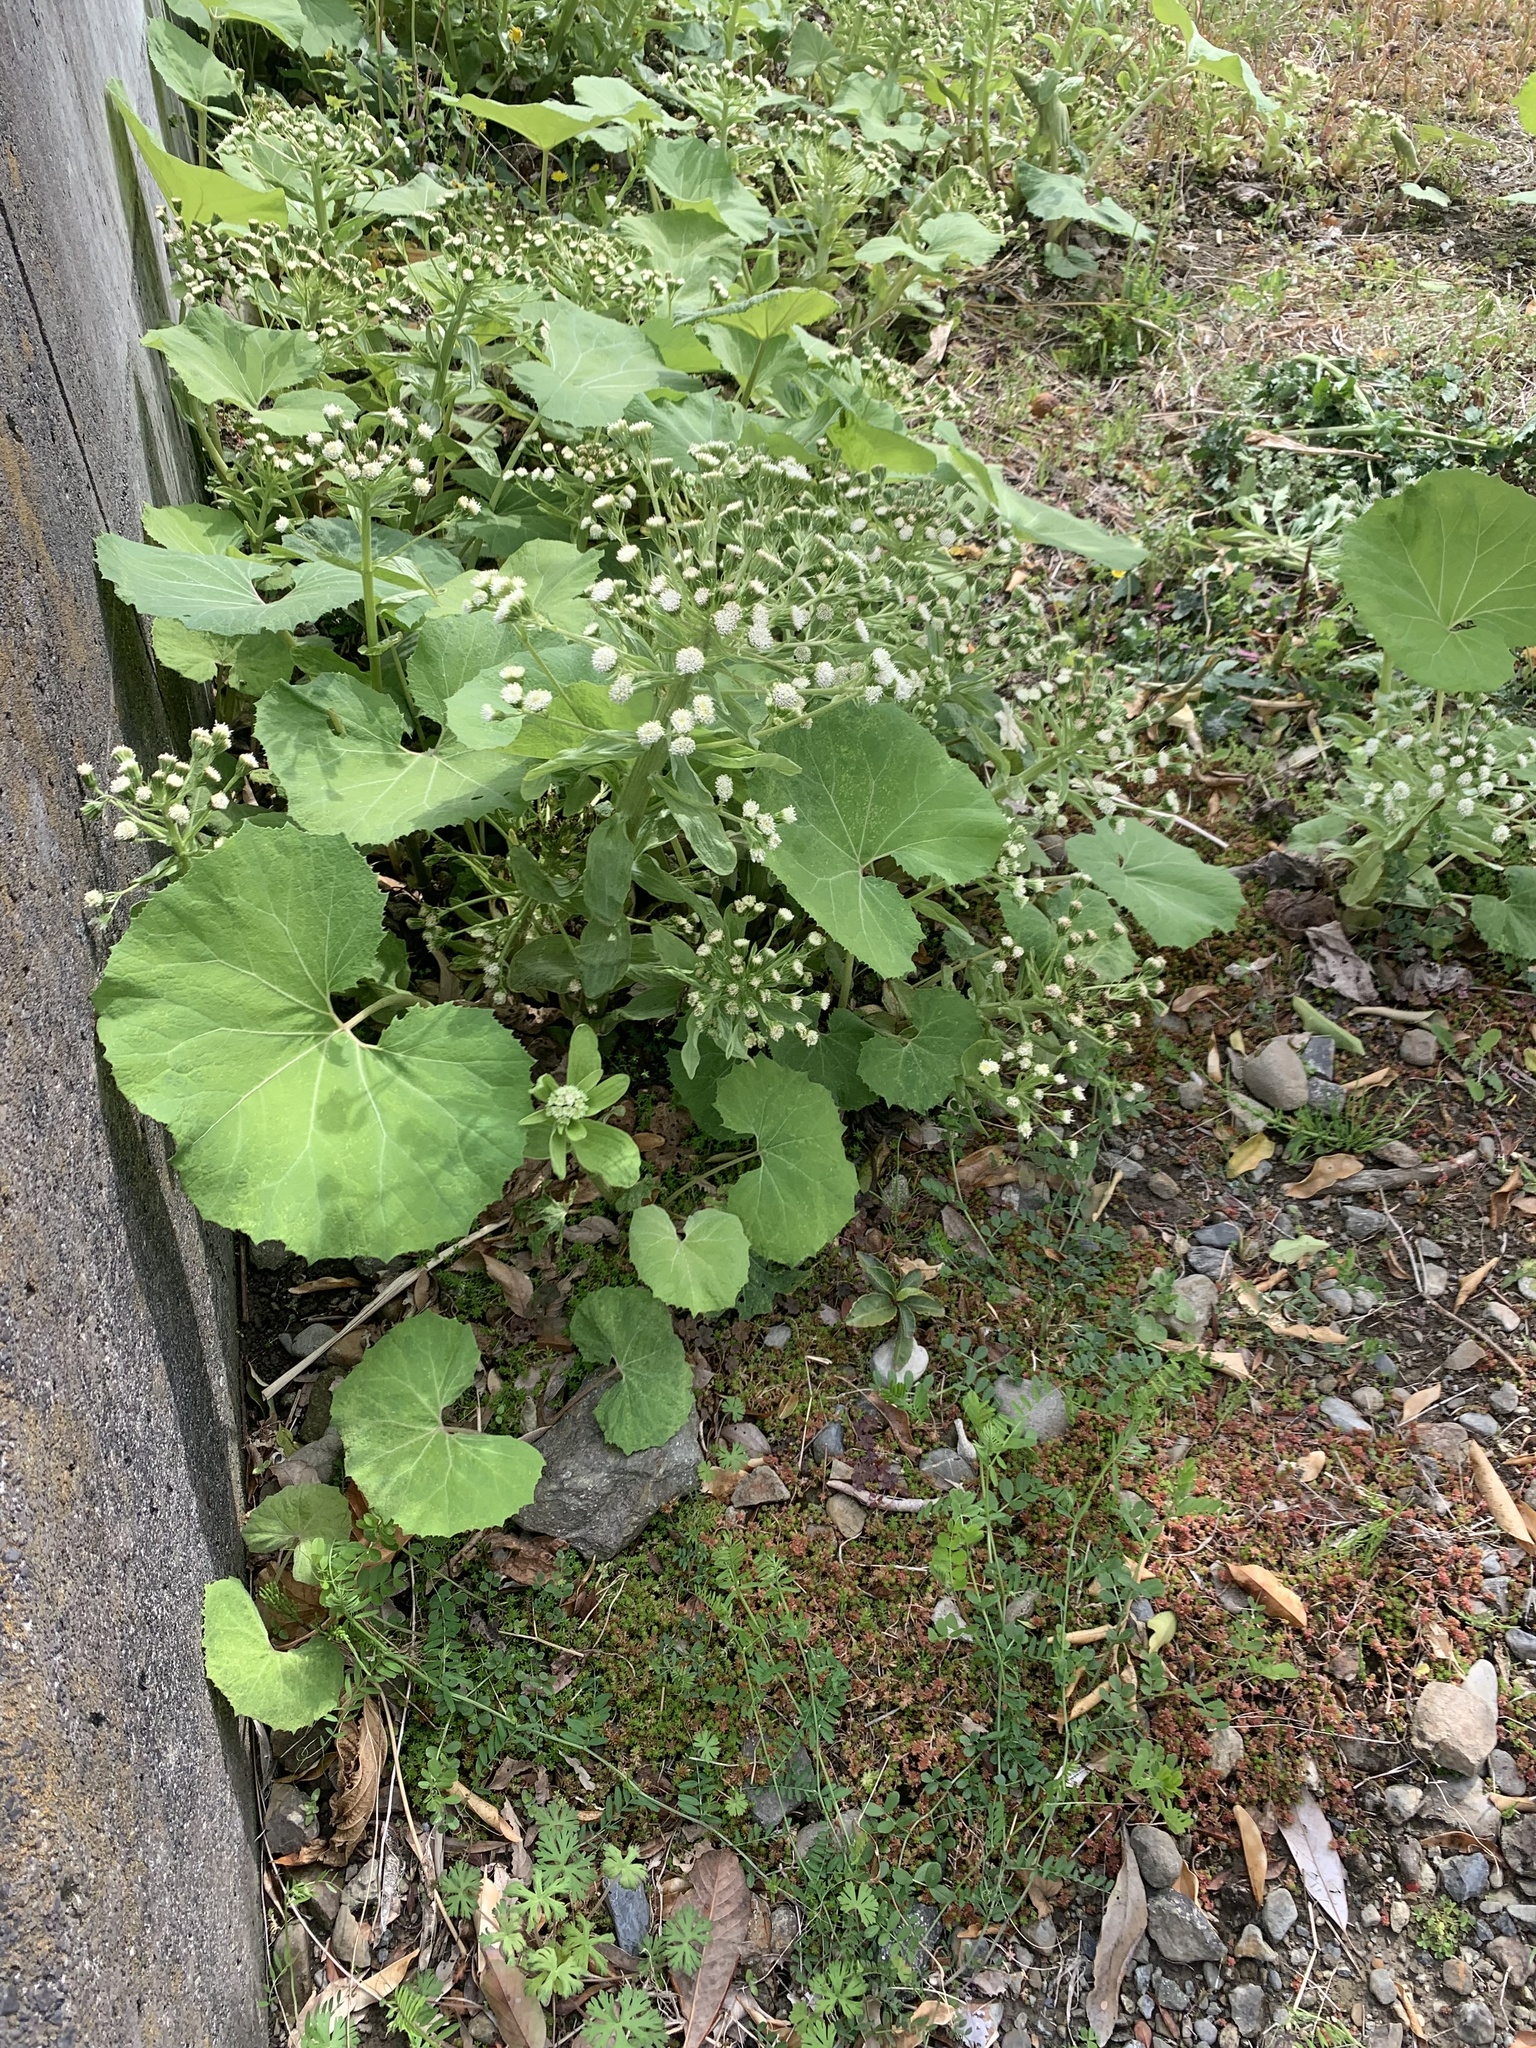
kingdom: Plantae
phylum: Tracheophyta
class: Magnoliopsida
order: Asterales
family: Asteraceae
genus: Petasites
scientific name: Petasites japonicus
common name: Giant butterbur
